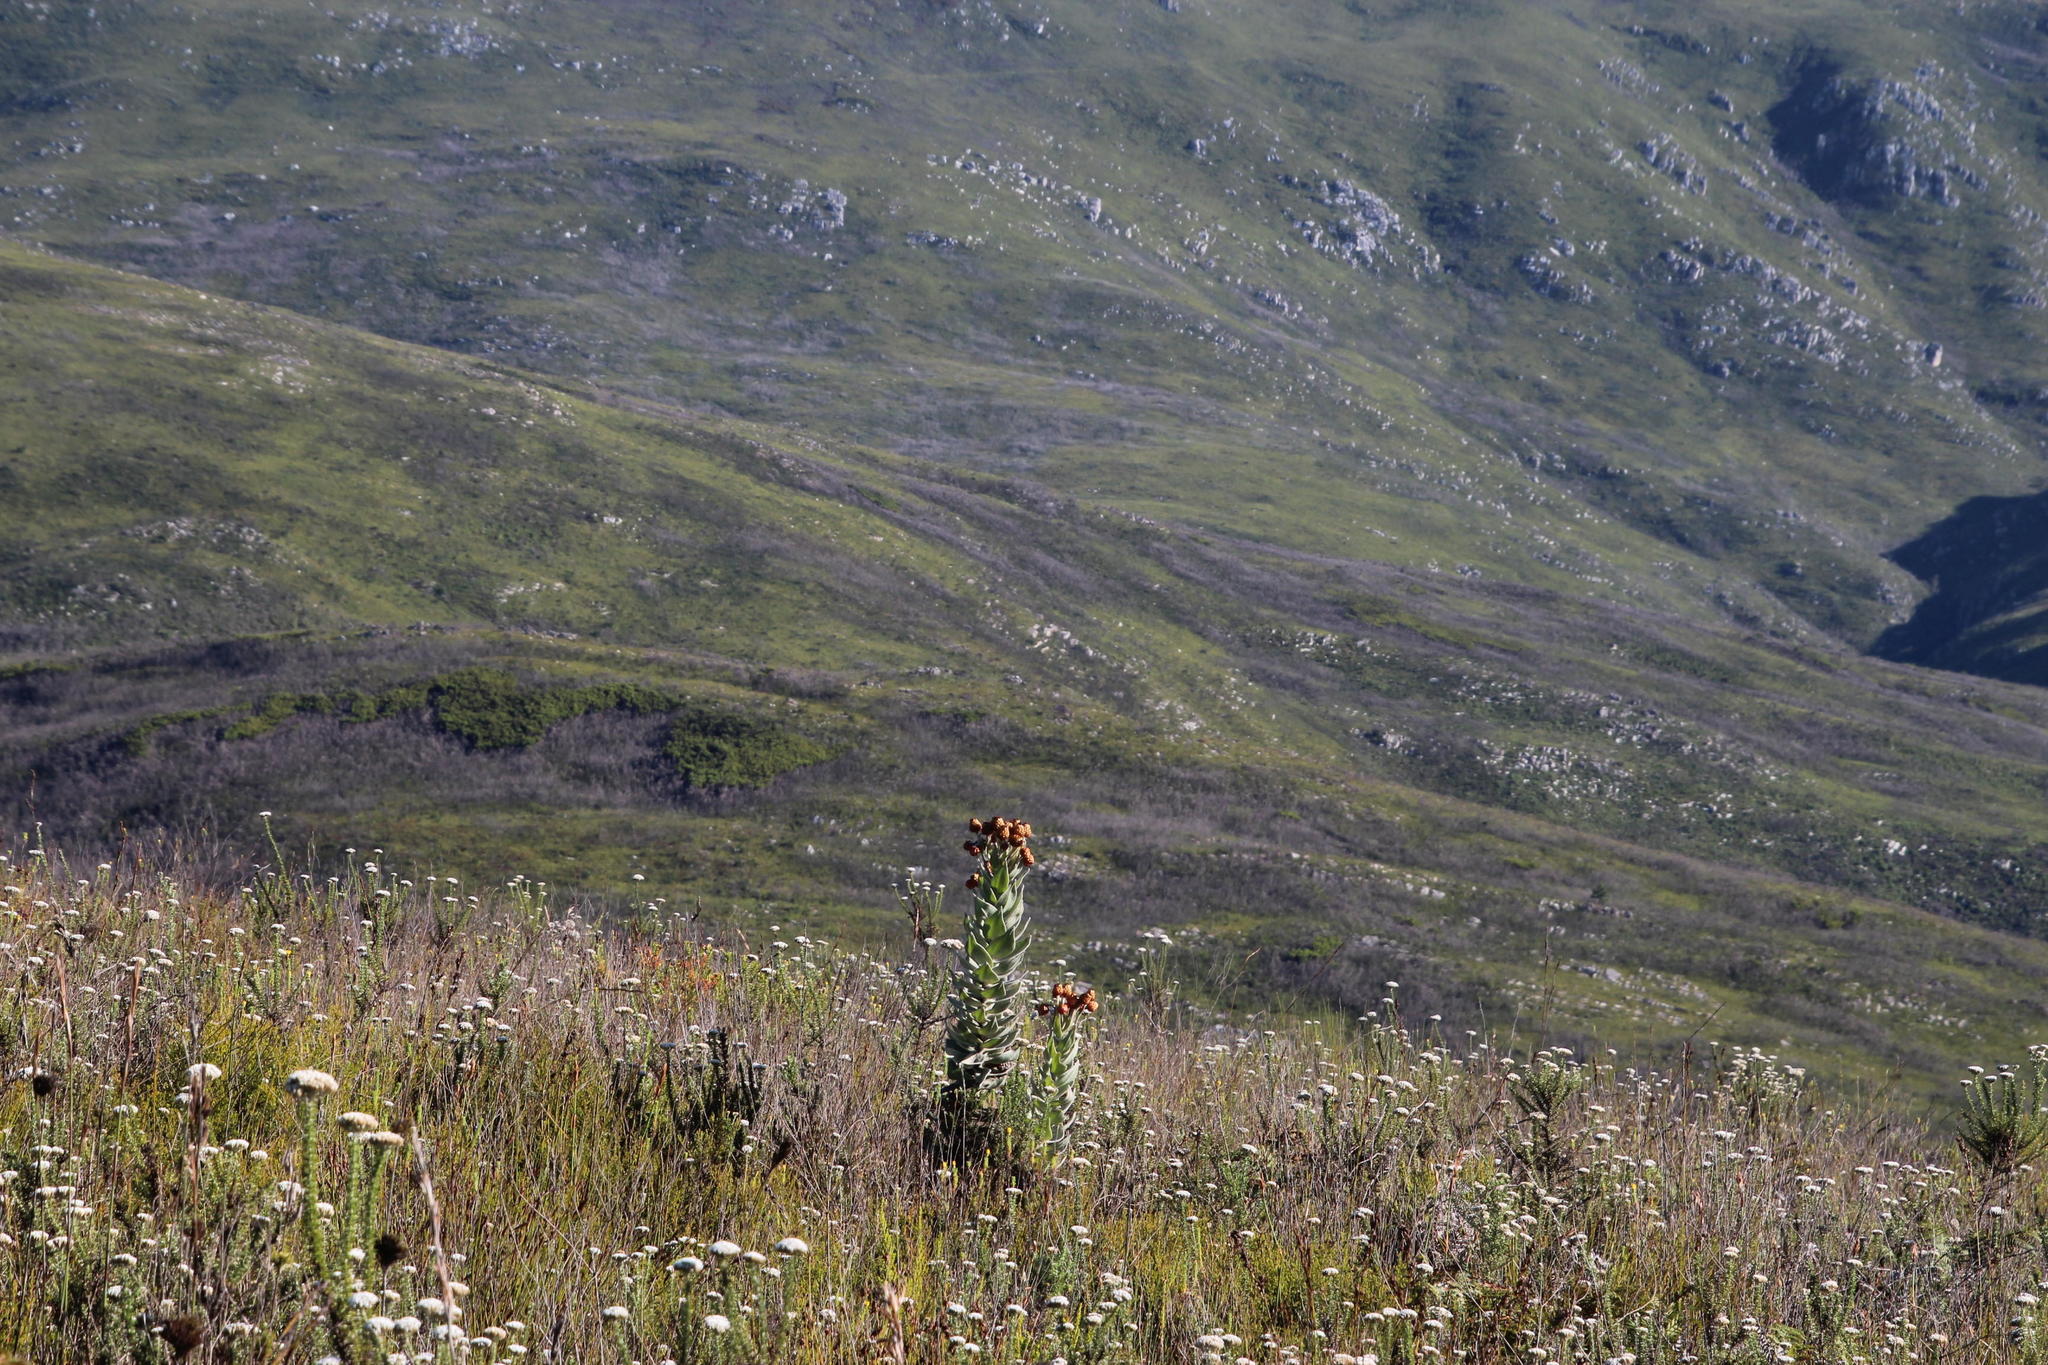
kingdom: Plantae
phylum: Tracheophyta
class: Magnoliopsida
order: Asterales
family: Asteraceae
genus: Syncarpha
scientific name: Syncarpha eximia
